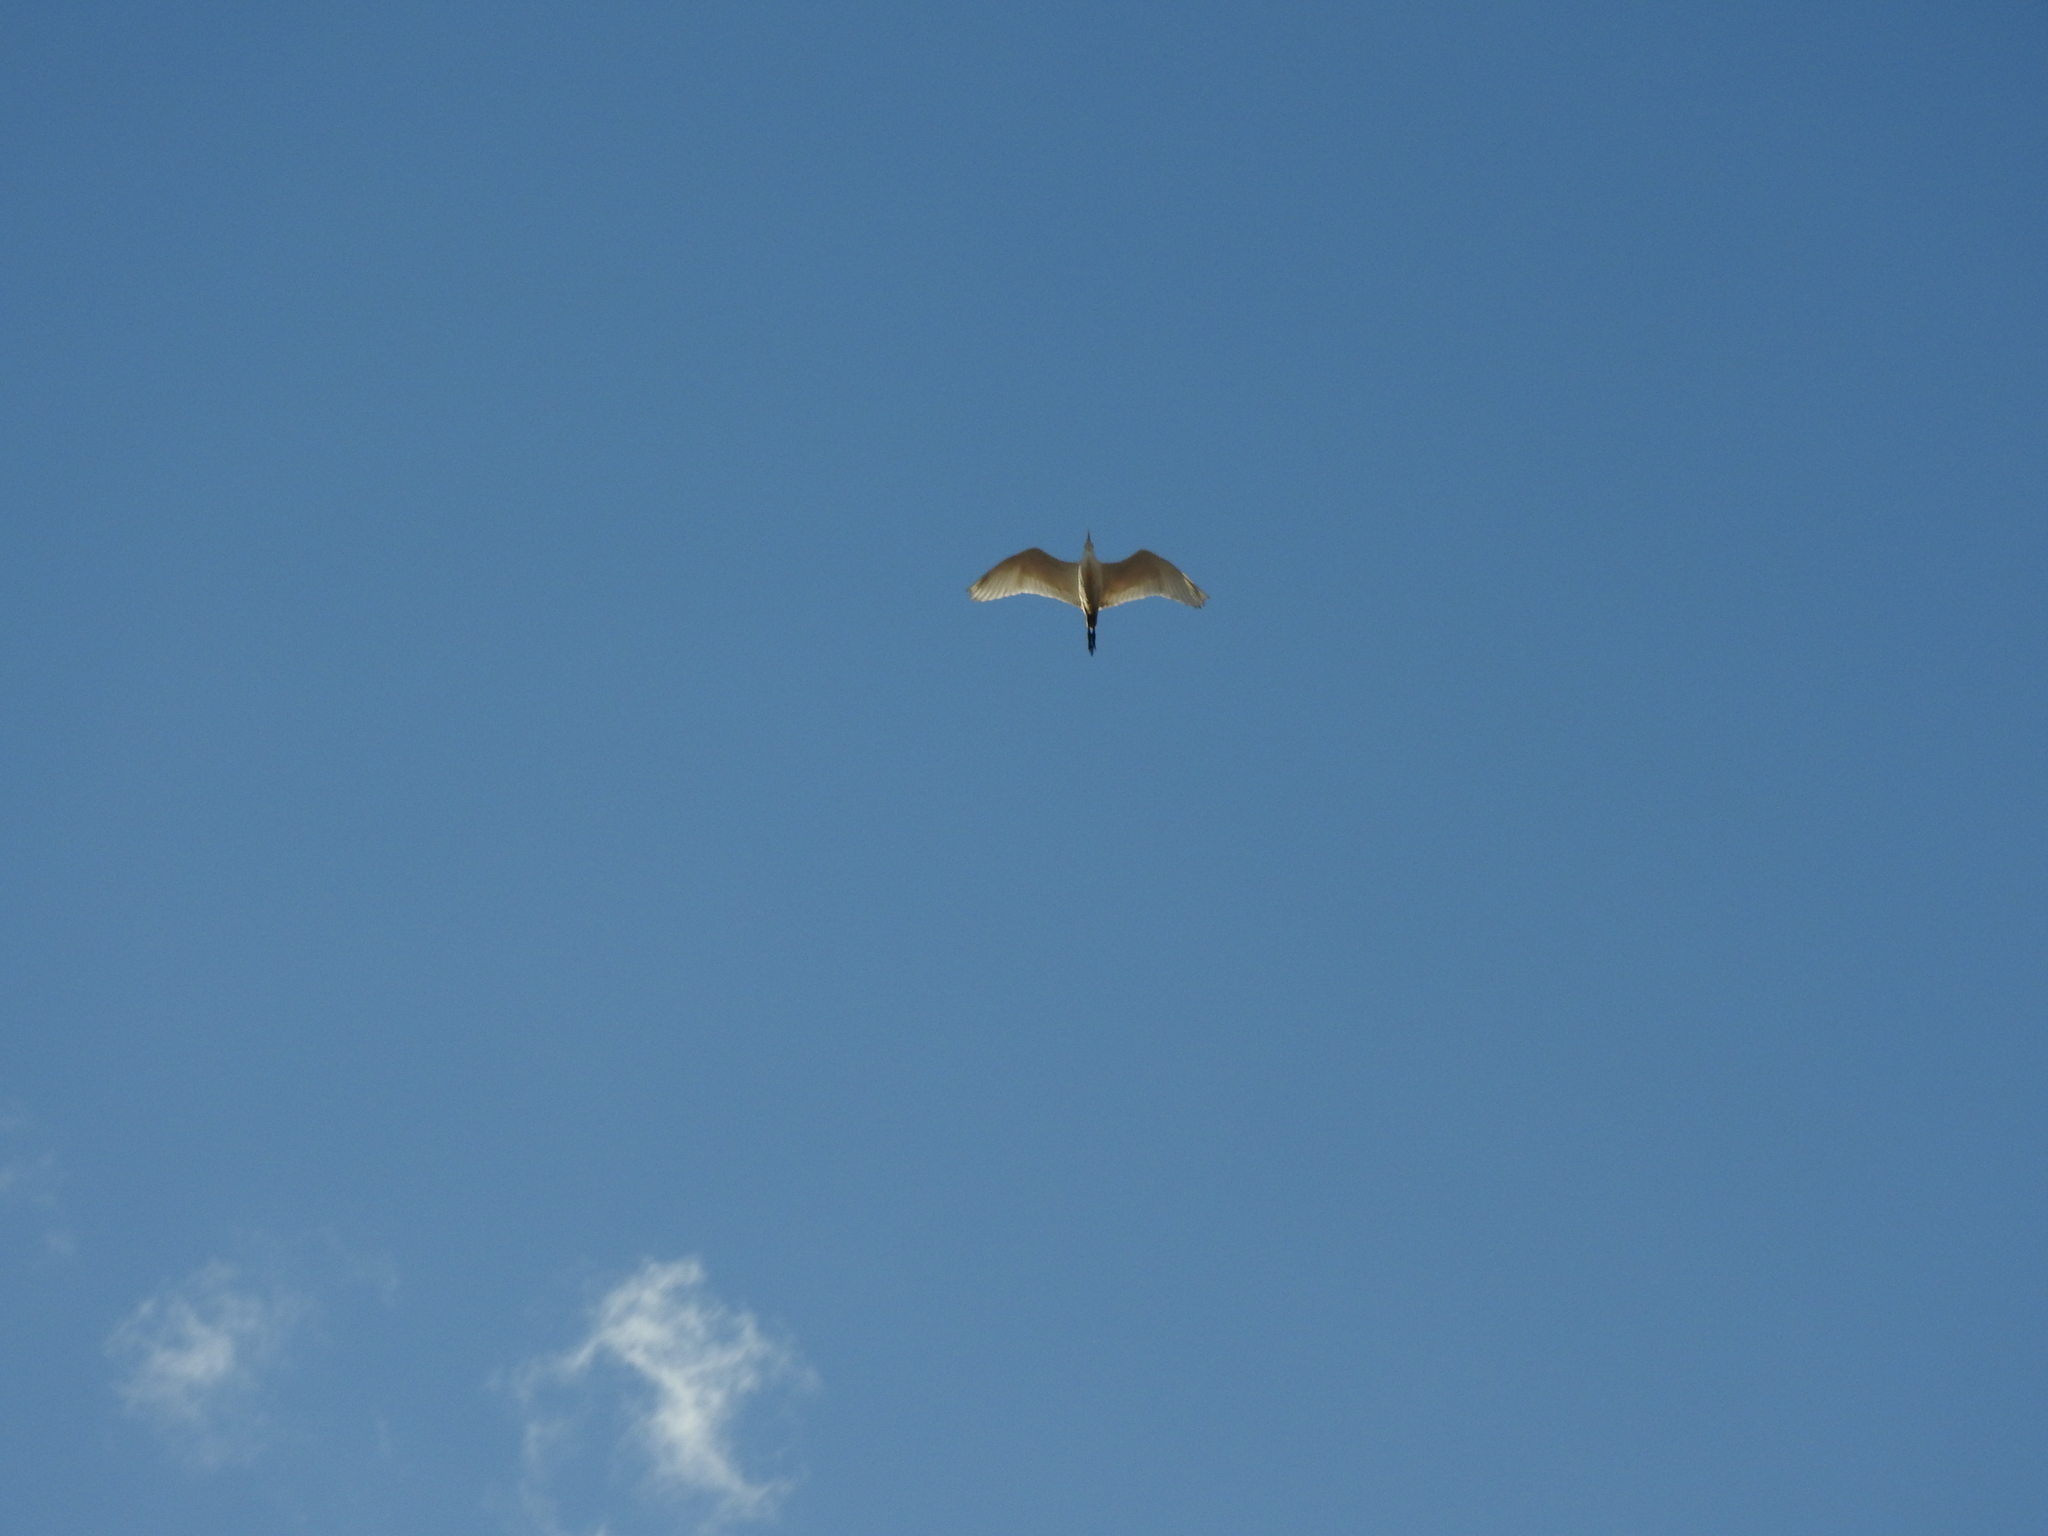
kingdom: Animalia
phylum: Chordata
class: Aves
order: Pelecaniformes
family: Ardeidae
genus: Bubulcus
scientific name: Bubulcus ibis
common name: Cattle egret
